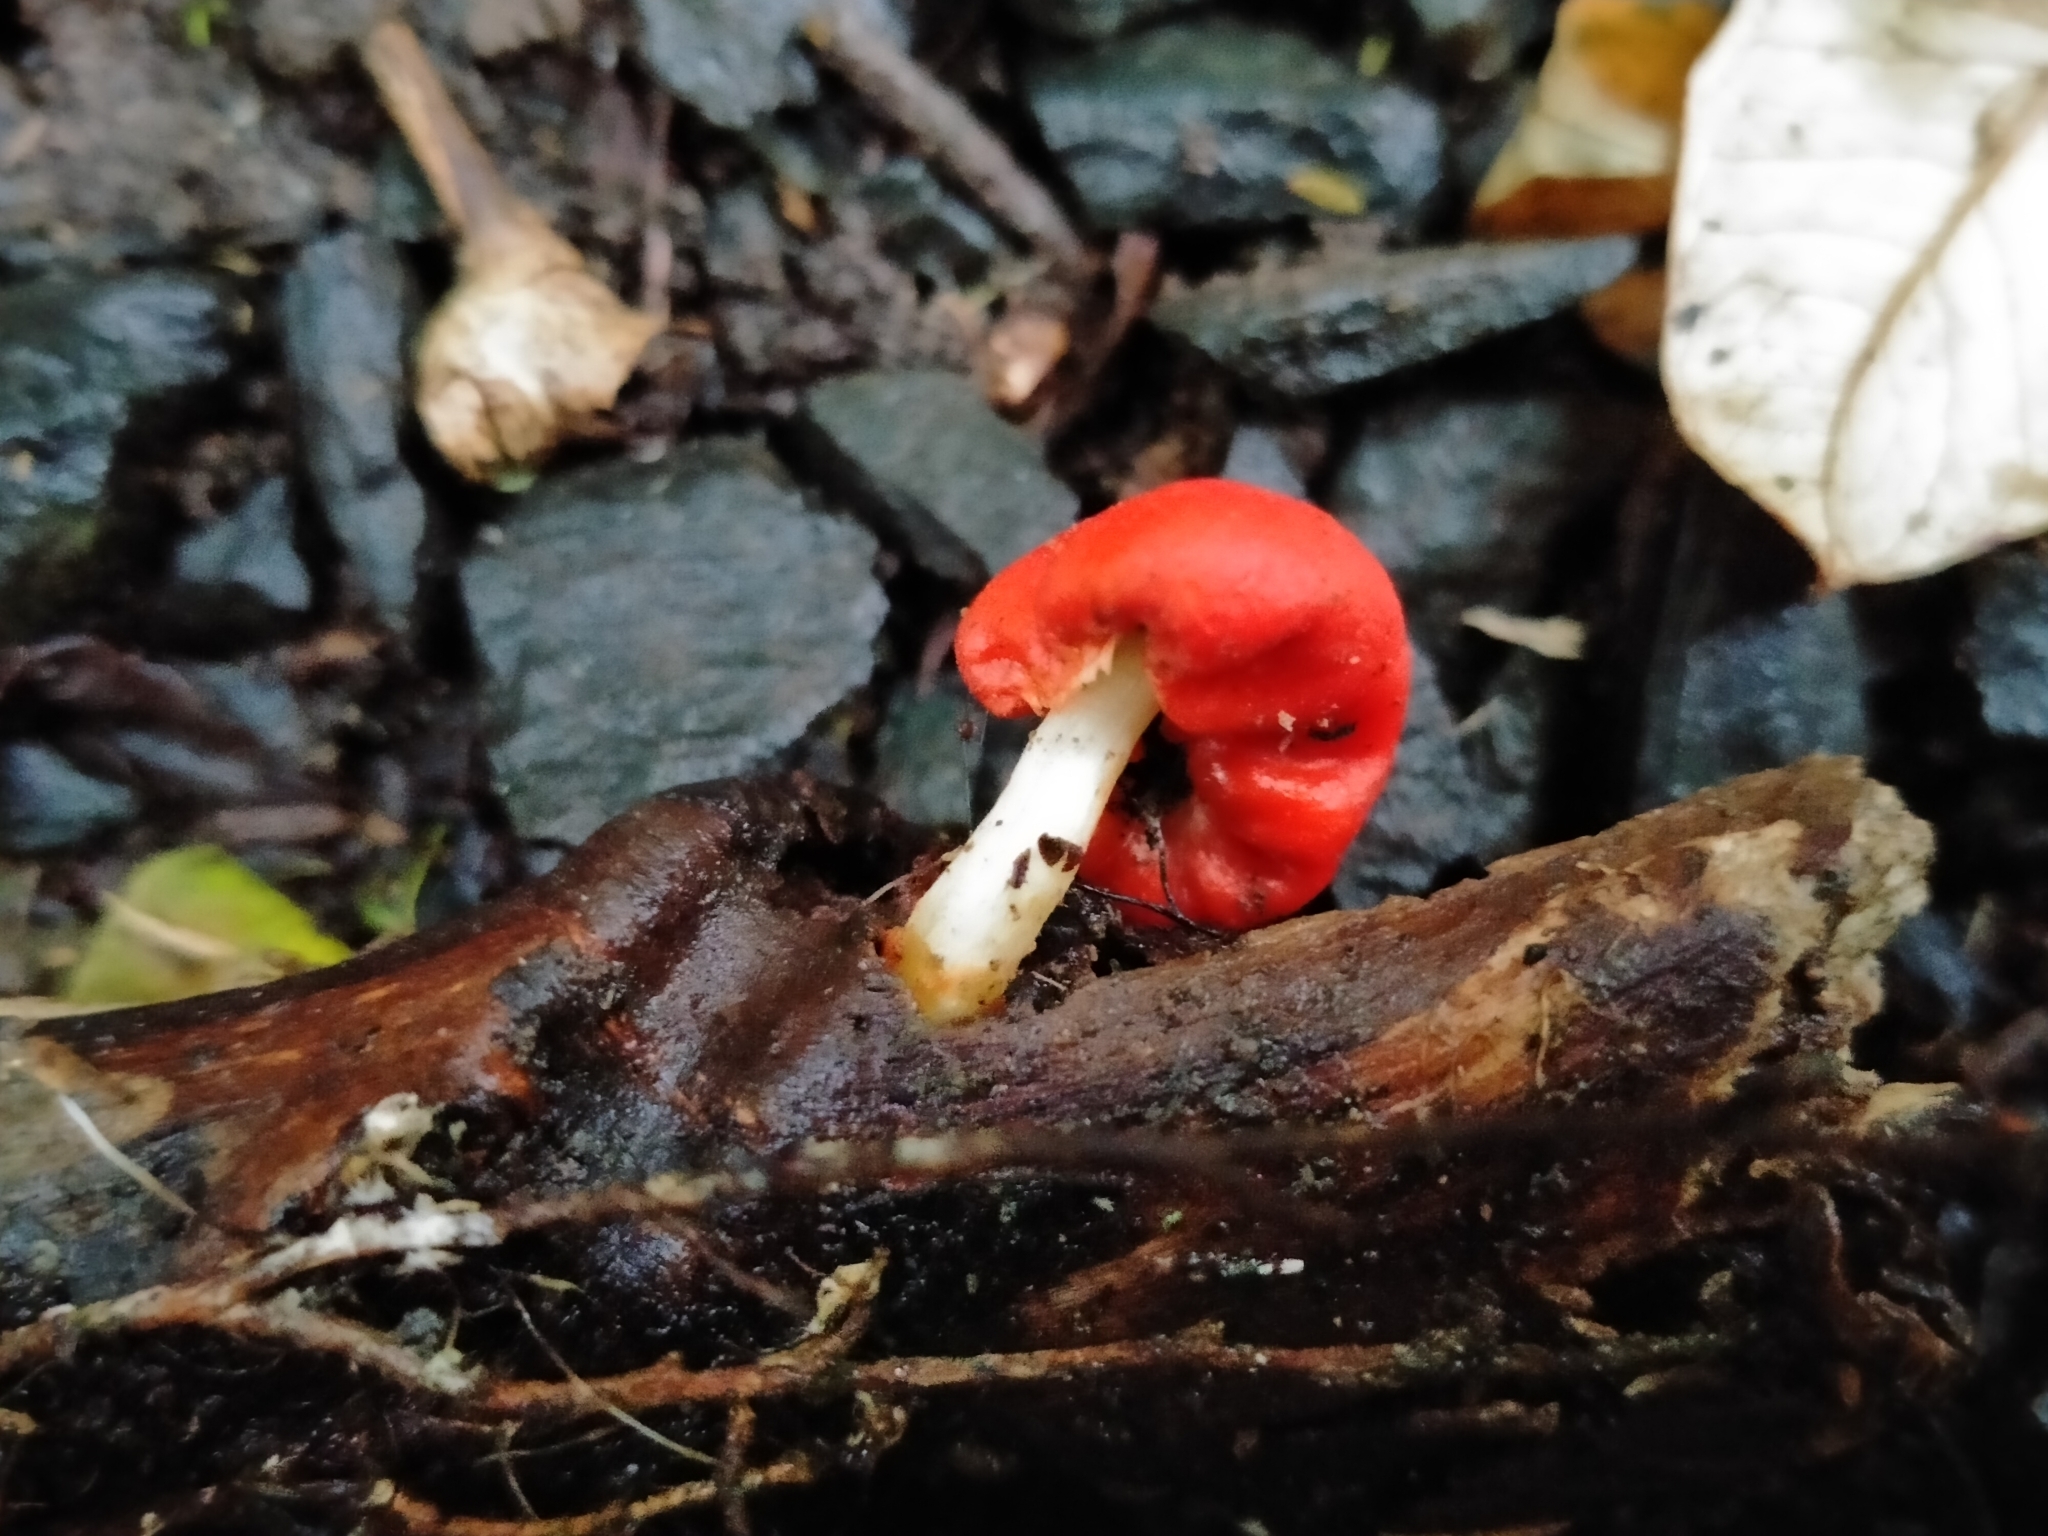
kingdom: Fungi
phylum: Basidiomycota
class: Agaricomycetes
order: Agaricales
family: Strophariaceae
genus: Leratiomyces
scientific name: Leratiomyces erythrocephalus
